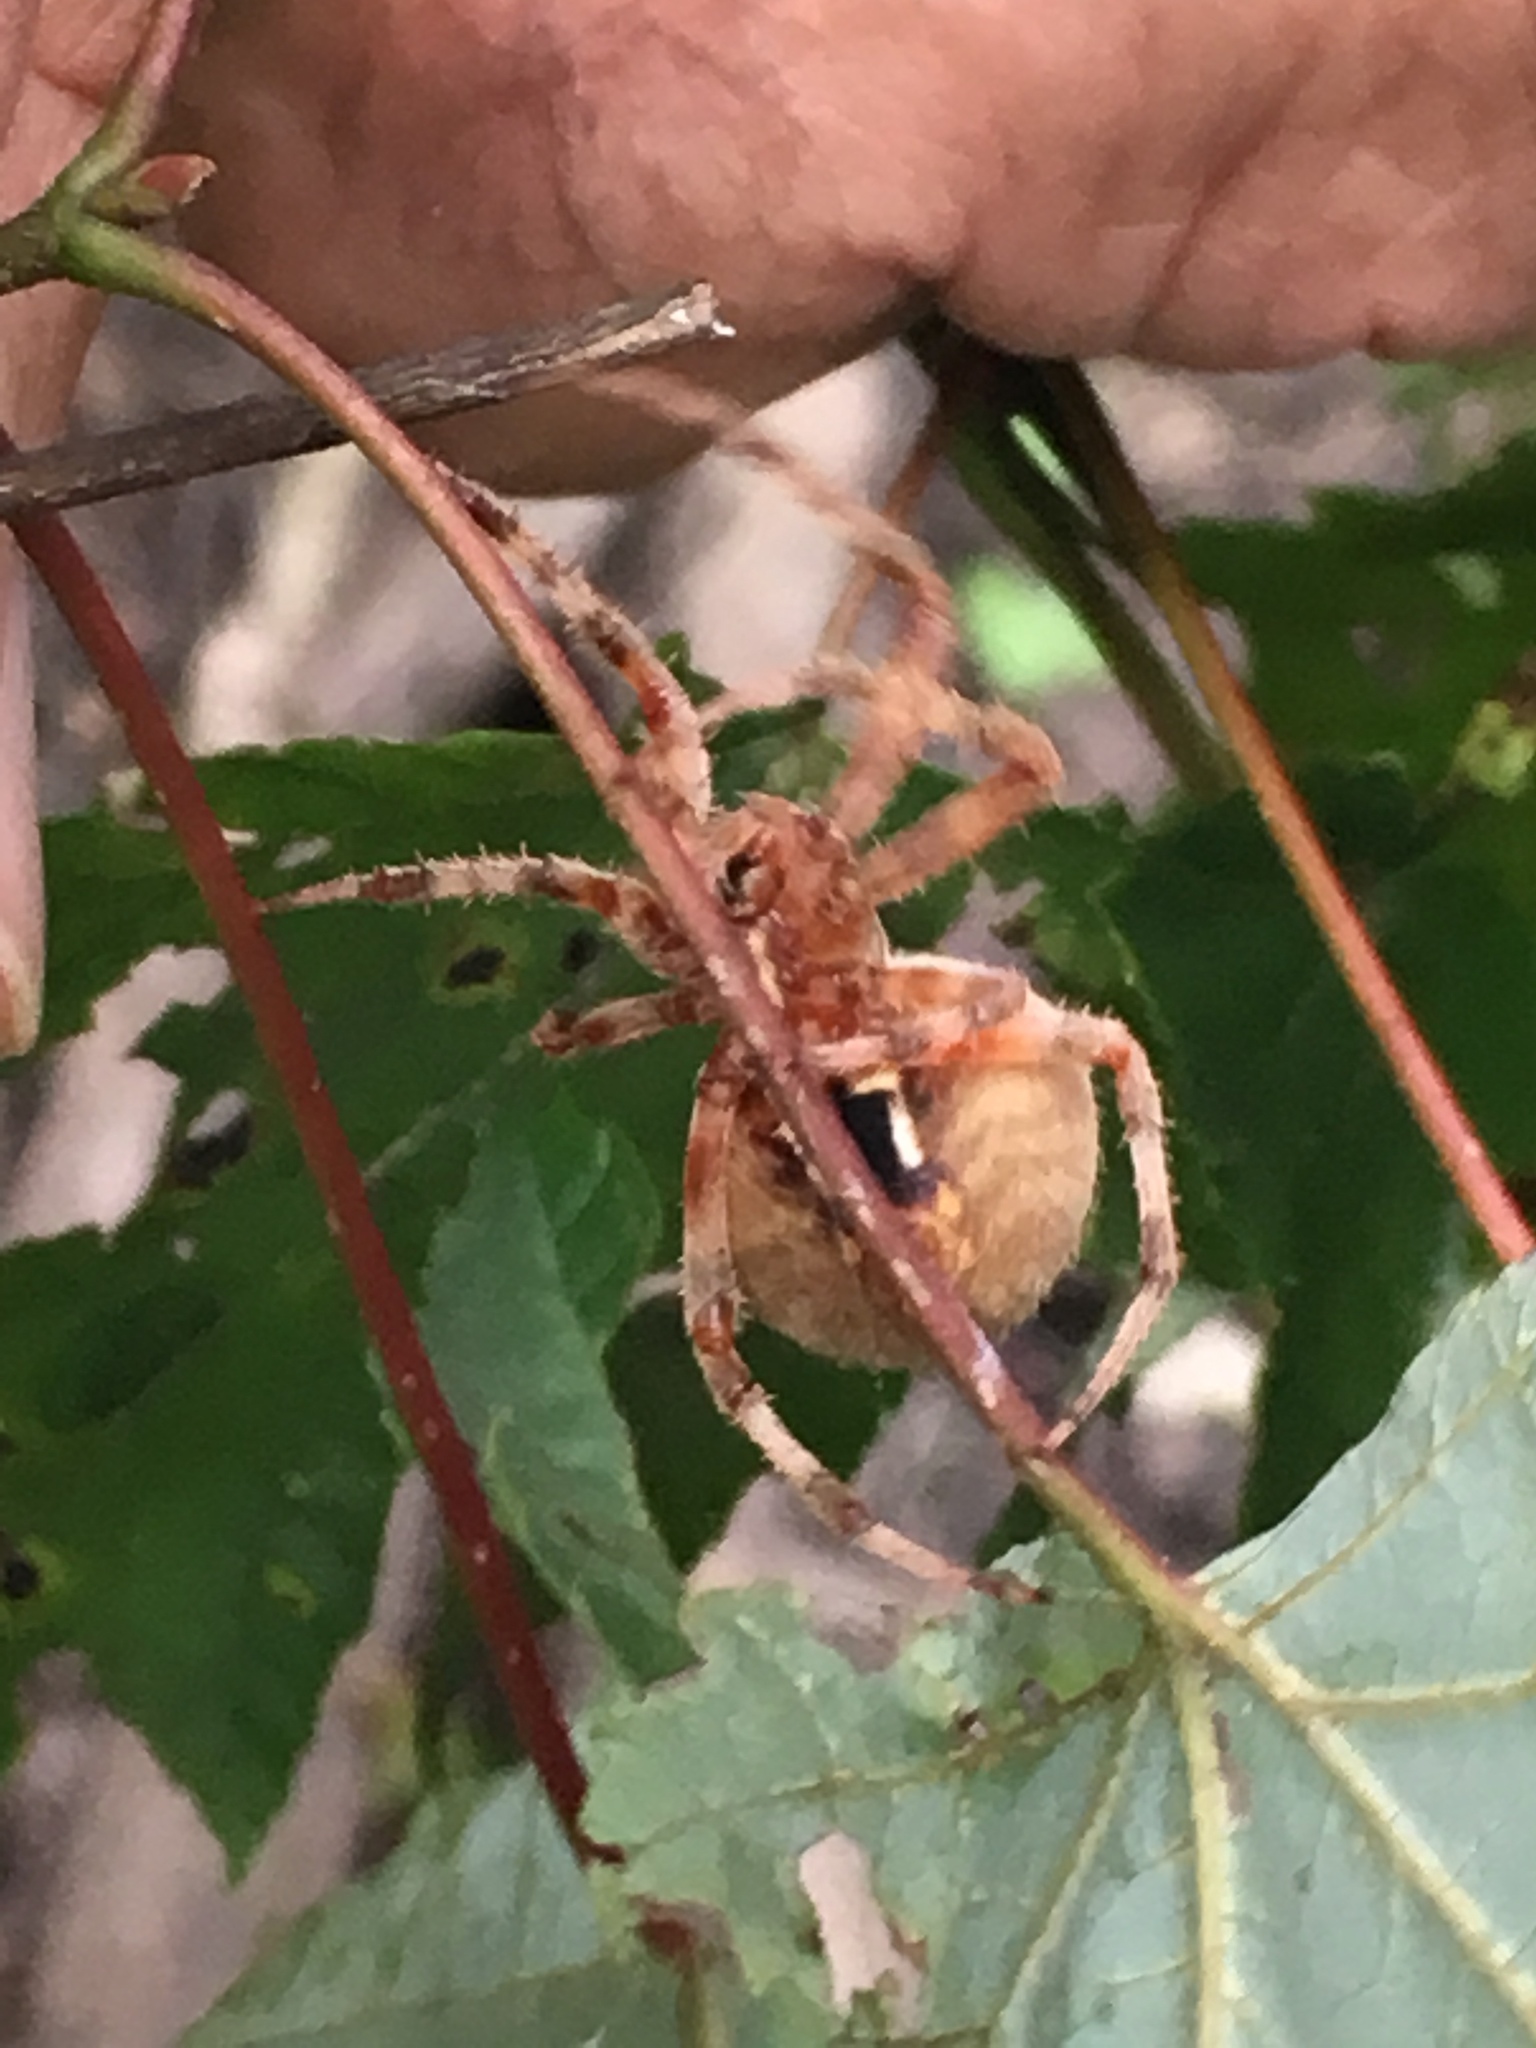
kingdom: Animalia
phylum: Arthropoda
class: Arachnida
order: Araneae
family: Araneidae
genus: Neoscona
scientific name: Neoscona crucifera
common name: Spotted orbweaver
